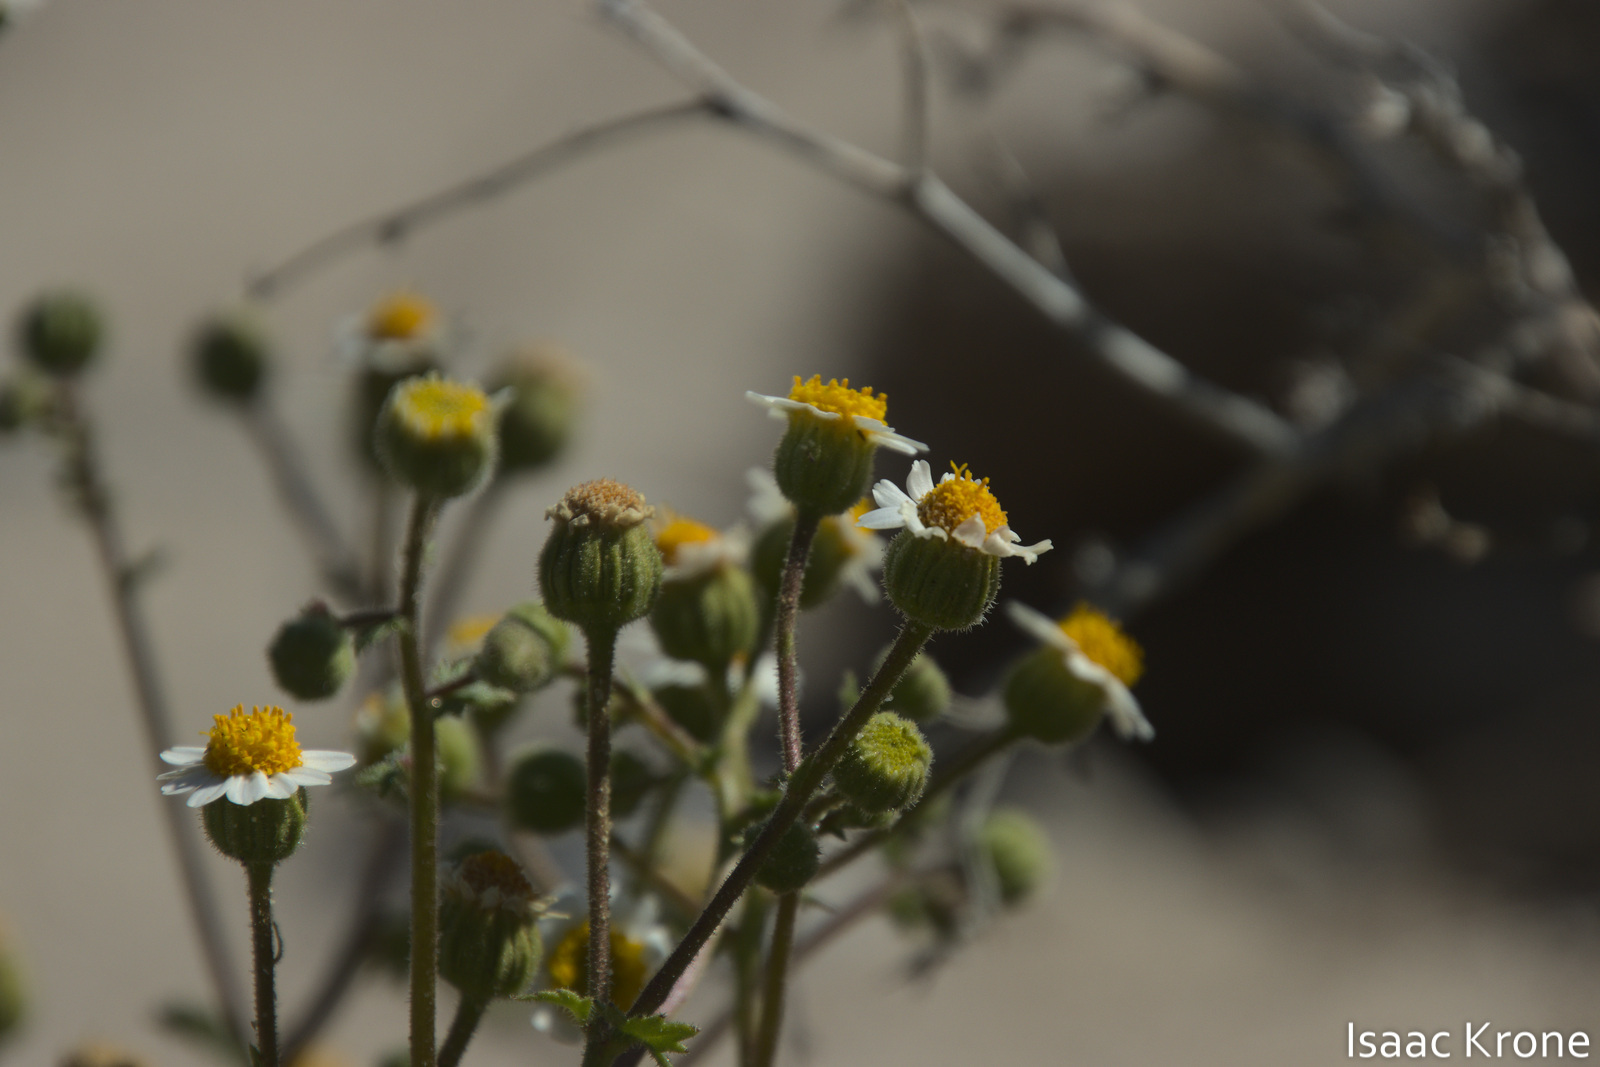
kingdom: Plantae
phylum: Tracheophyta
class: Magnoliopsida
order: Asterales
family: Asteraceae
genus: Laphamia
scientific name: Laphamia emoryi
